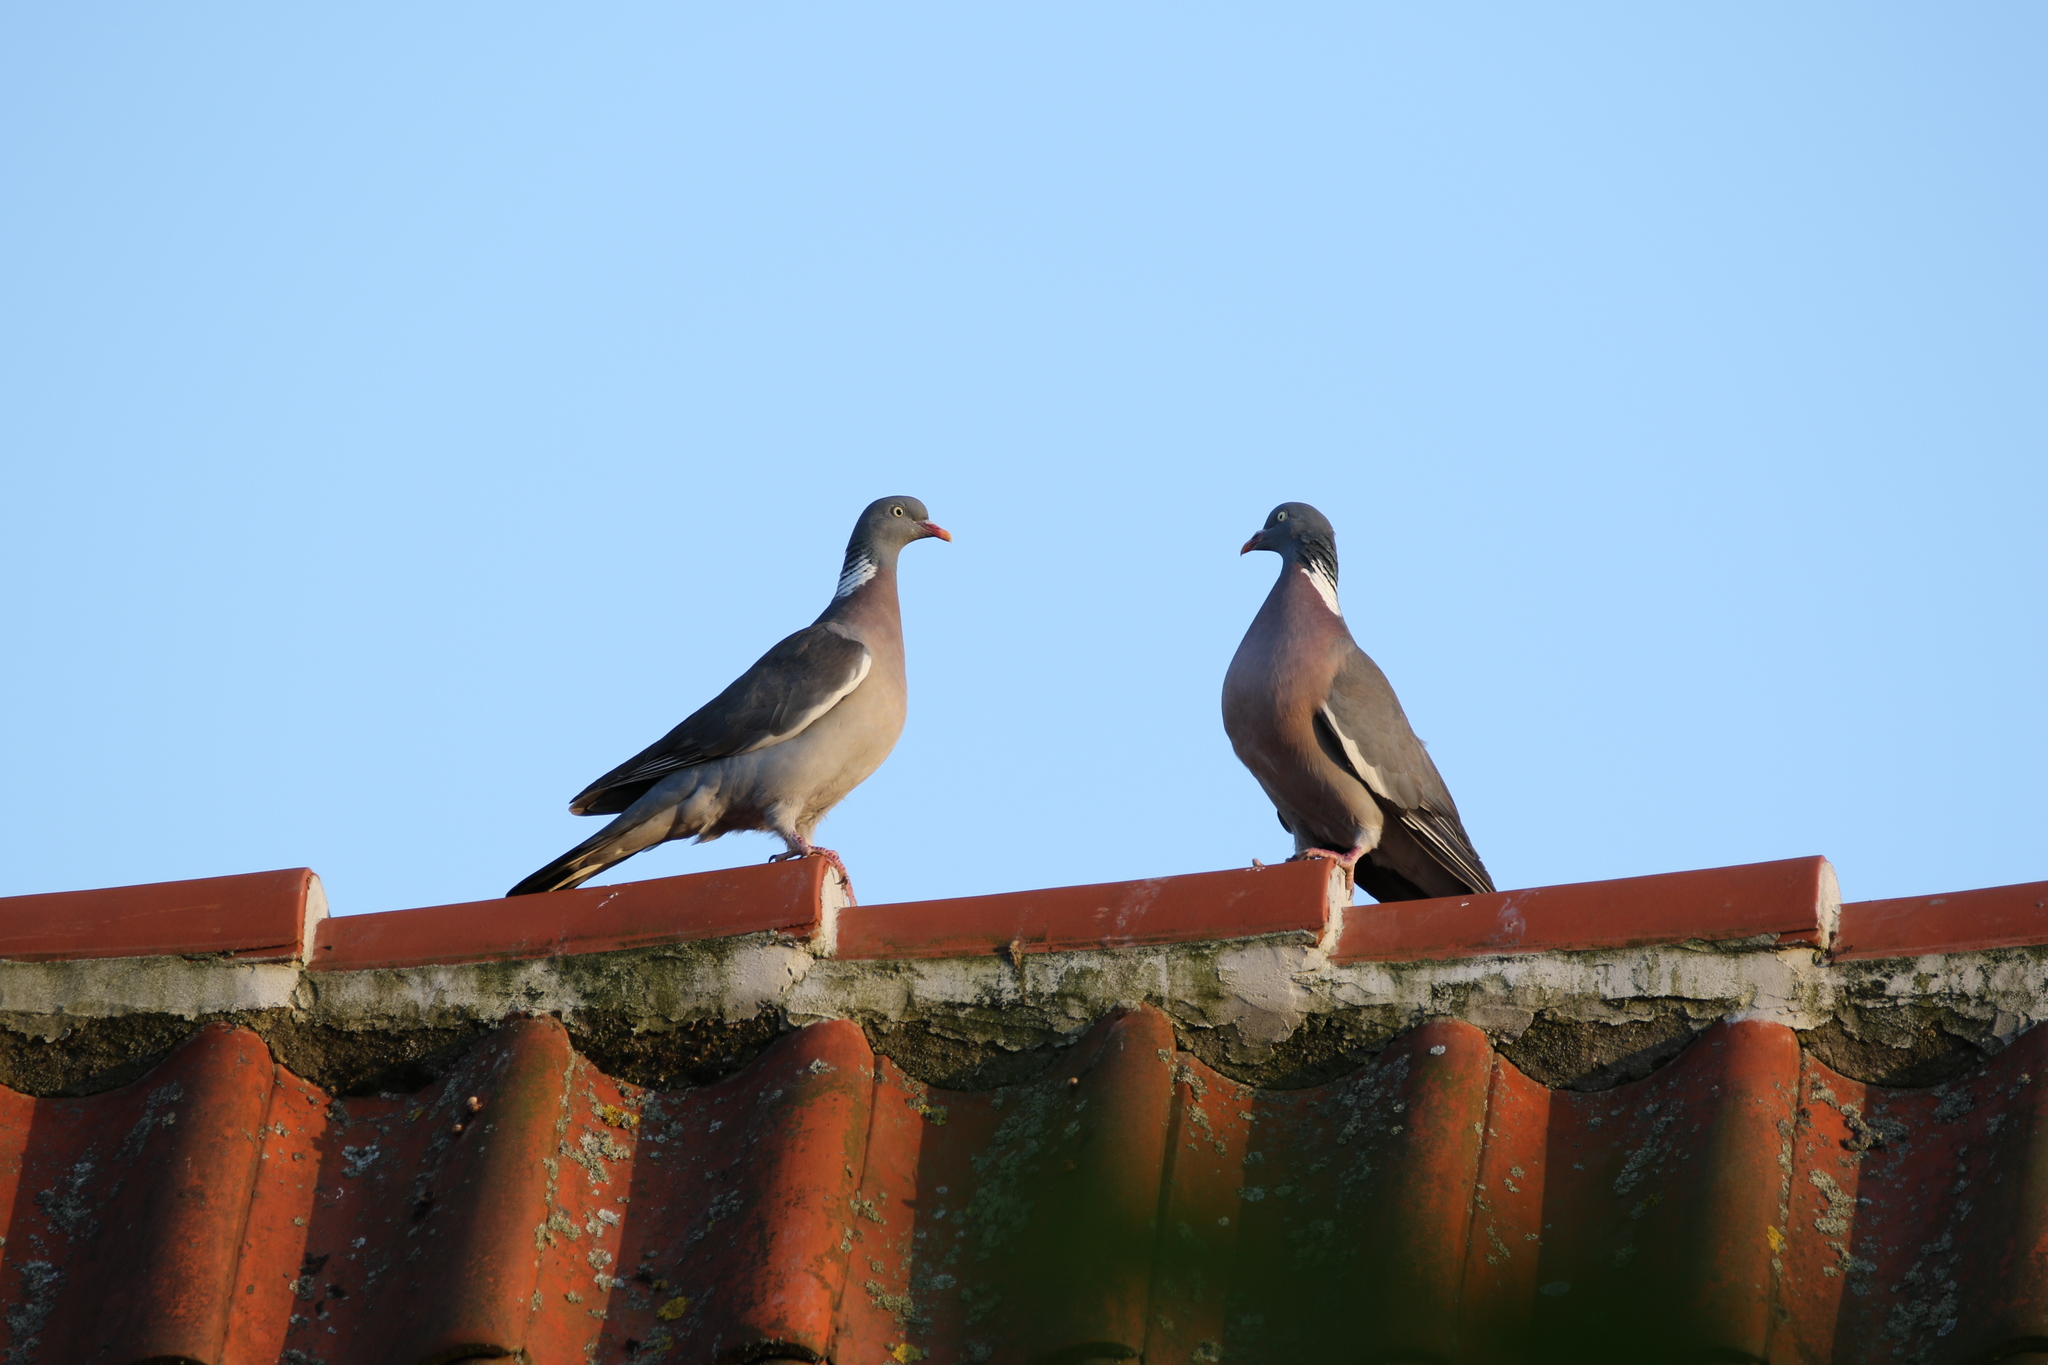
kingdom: Animalia
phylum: Chordata
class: Aves
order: Columbiformes
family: Columbidae
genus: Columba
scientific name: Columba palumbus
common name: Common wood pigeon
